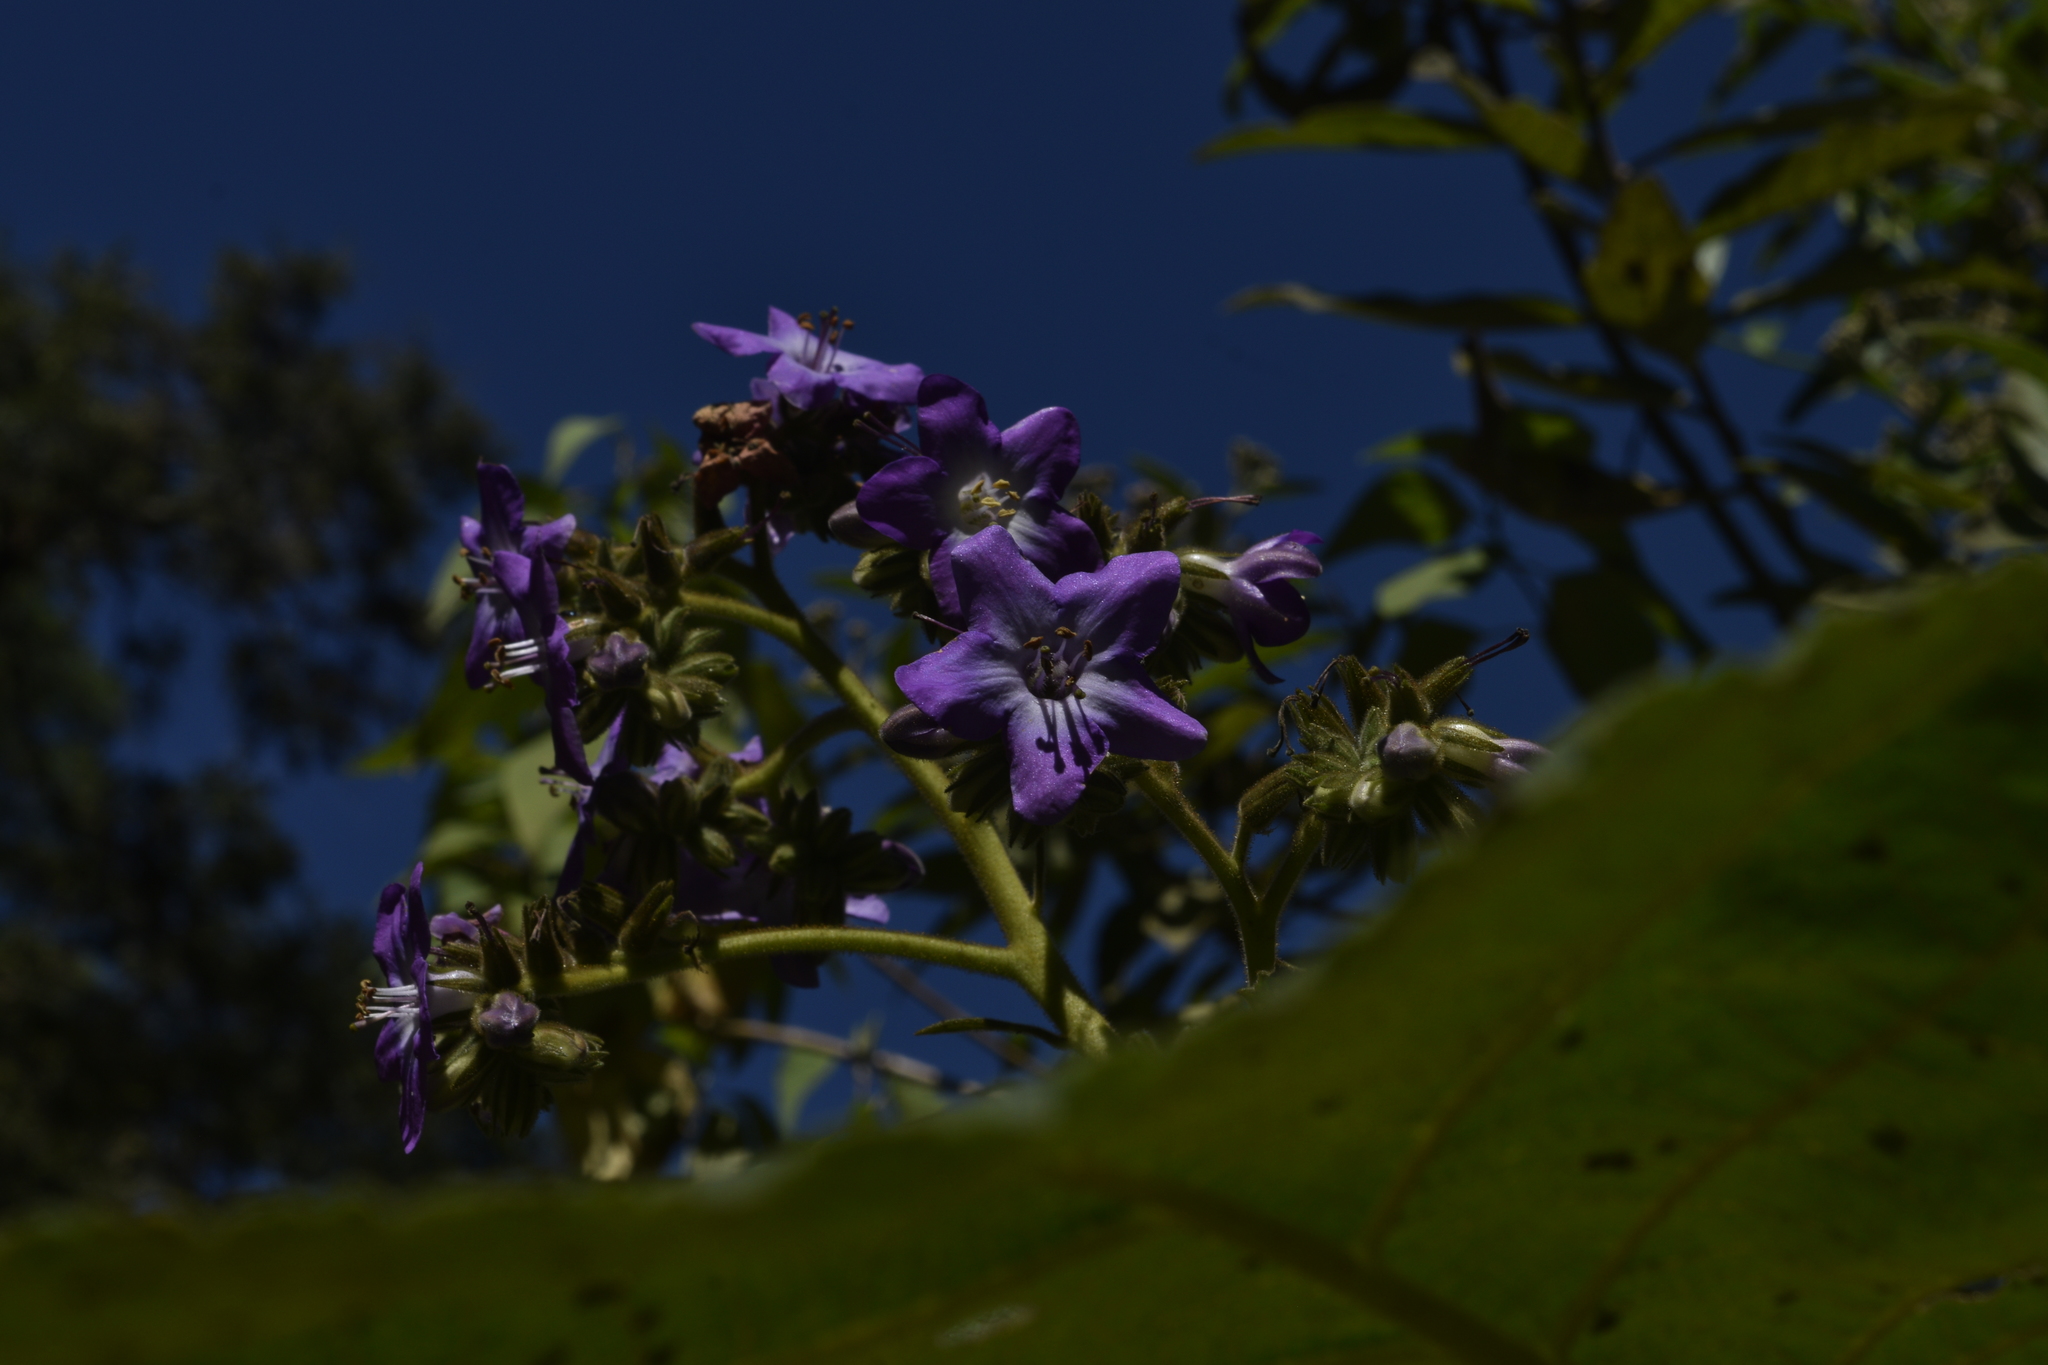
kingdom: Plantae
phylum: Tracheophyta
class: Magnoliopsida
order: Boraginales
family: Namaceae
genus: Wigandia
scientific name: Wigandia urens
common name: Caracus wigandia
